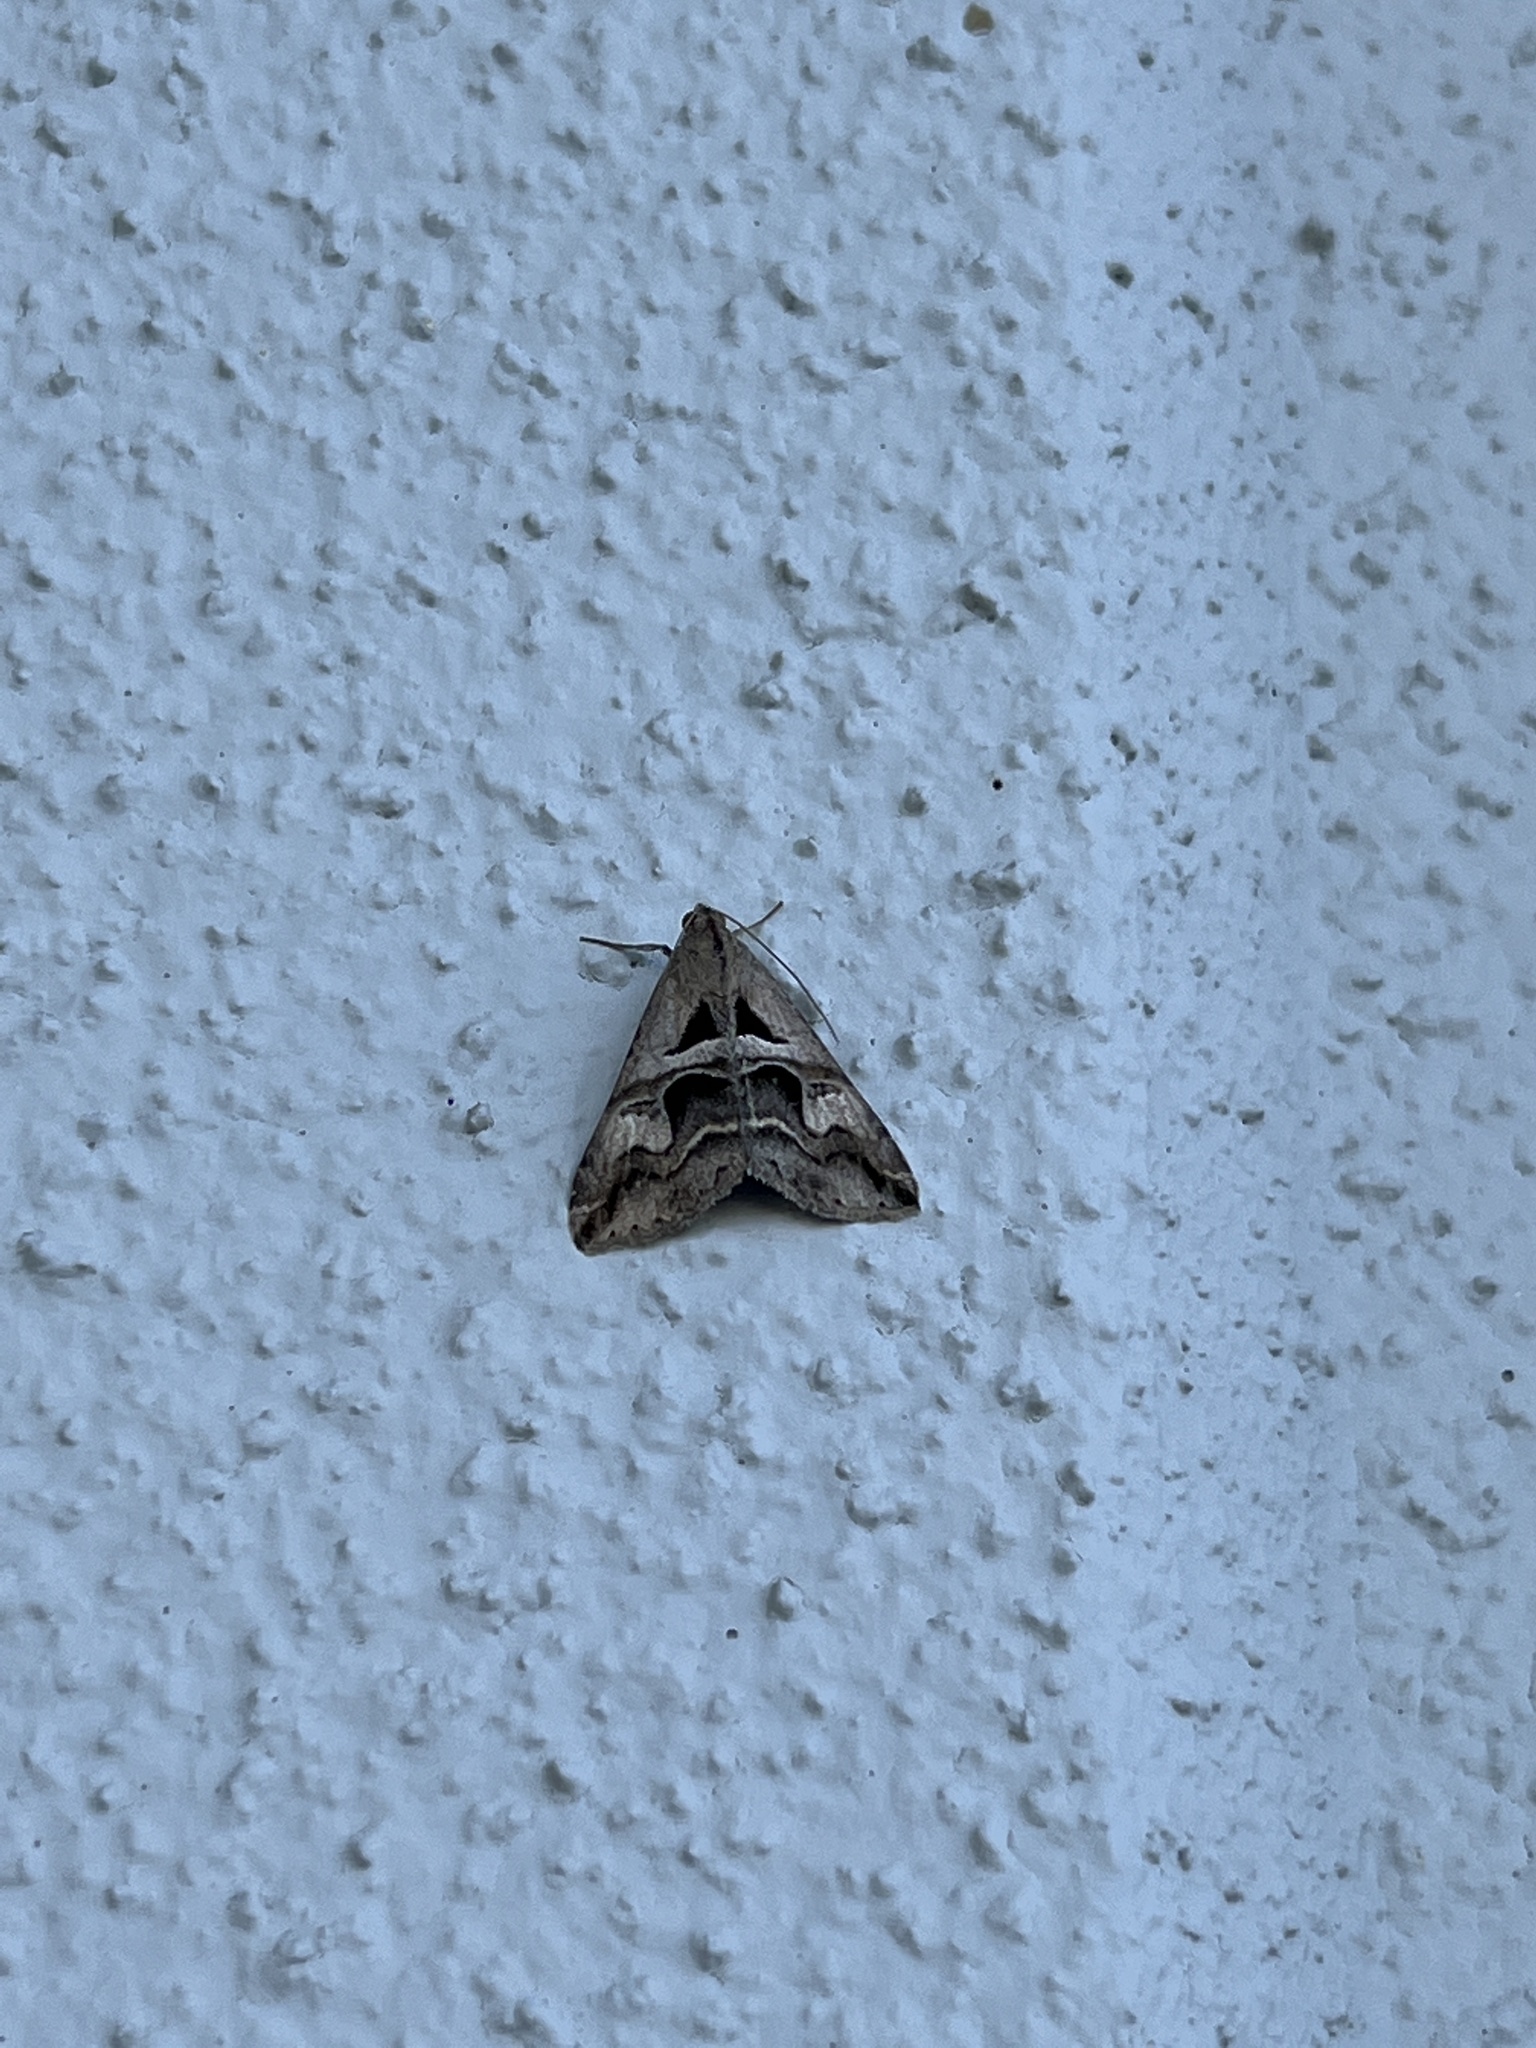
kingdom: Animalia
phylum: Arthropoda
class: Insecta
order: Lepidoptera
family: Erebidae
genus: Melipotis
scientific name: Melipotis cellaris
